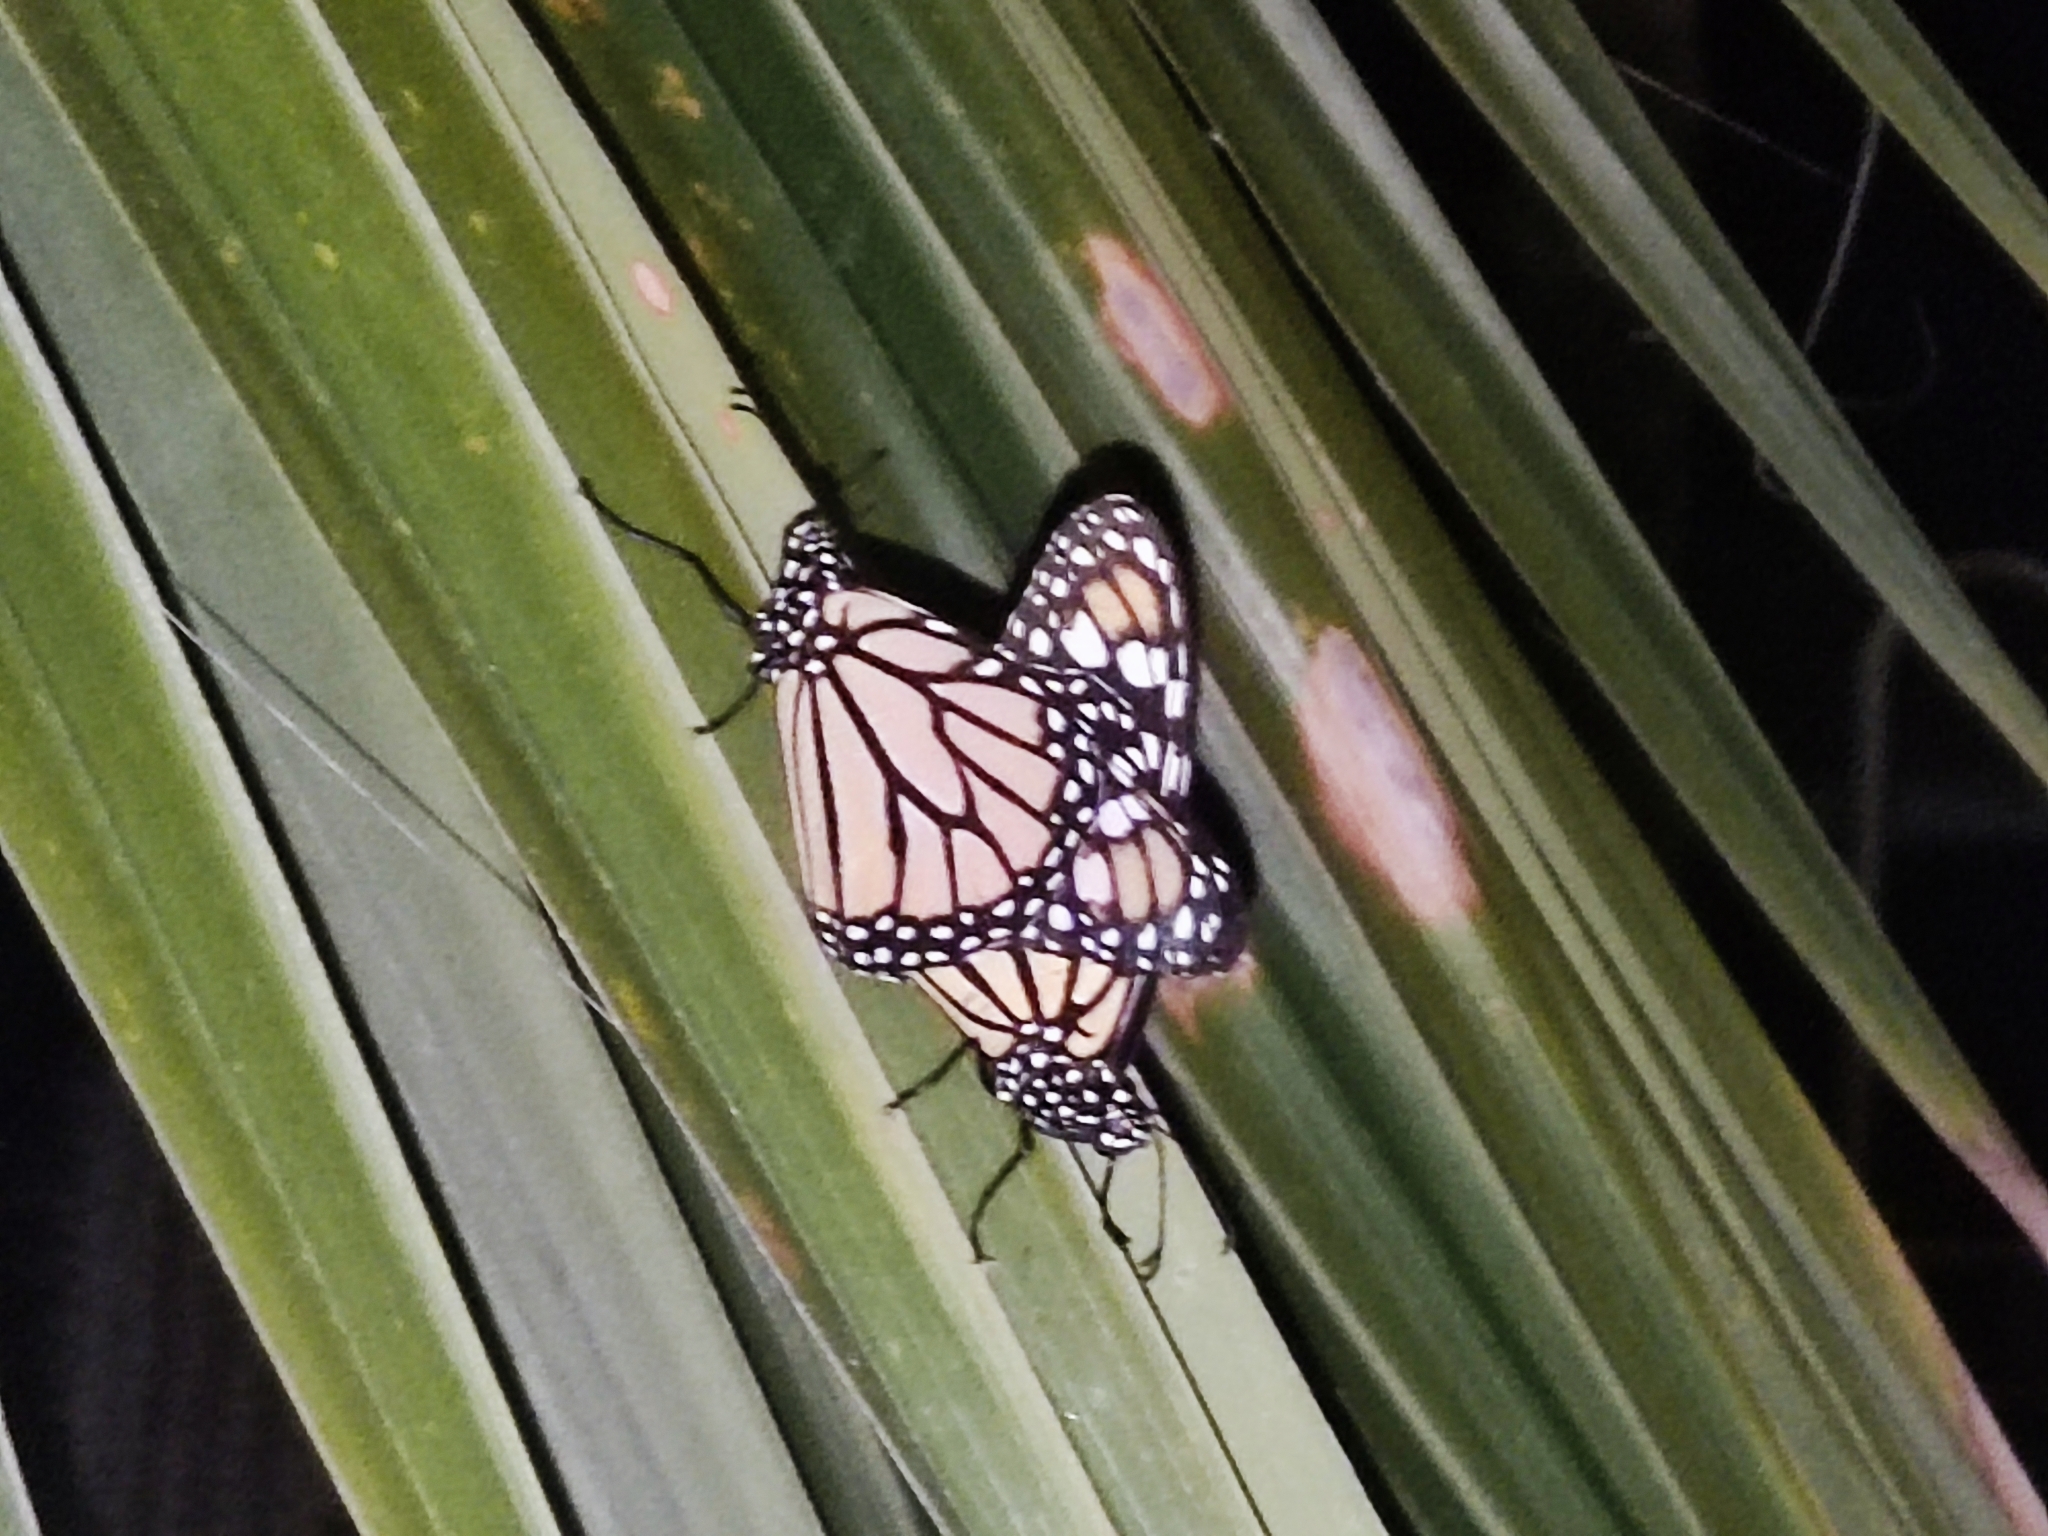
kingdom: Animalia
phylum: Arthropoda
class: Insecta
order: Lepidoptera
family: Nymphalidae
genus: Danaus
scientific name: Danaus plexippus
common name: Monarch
